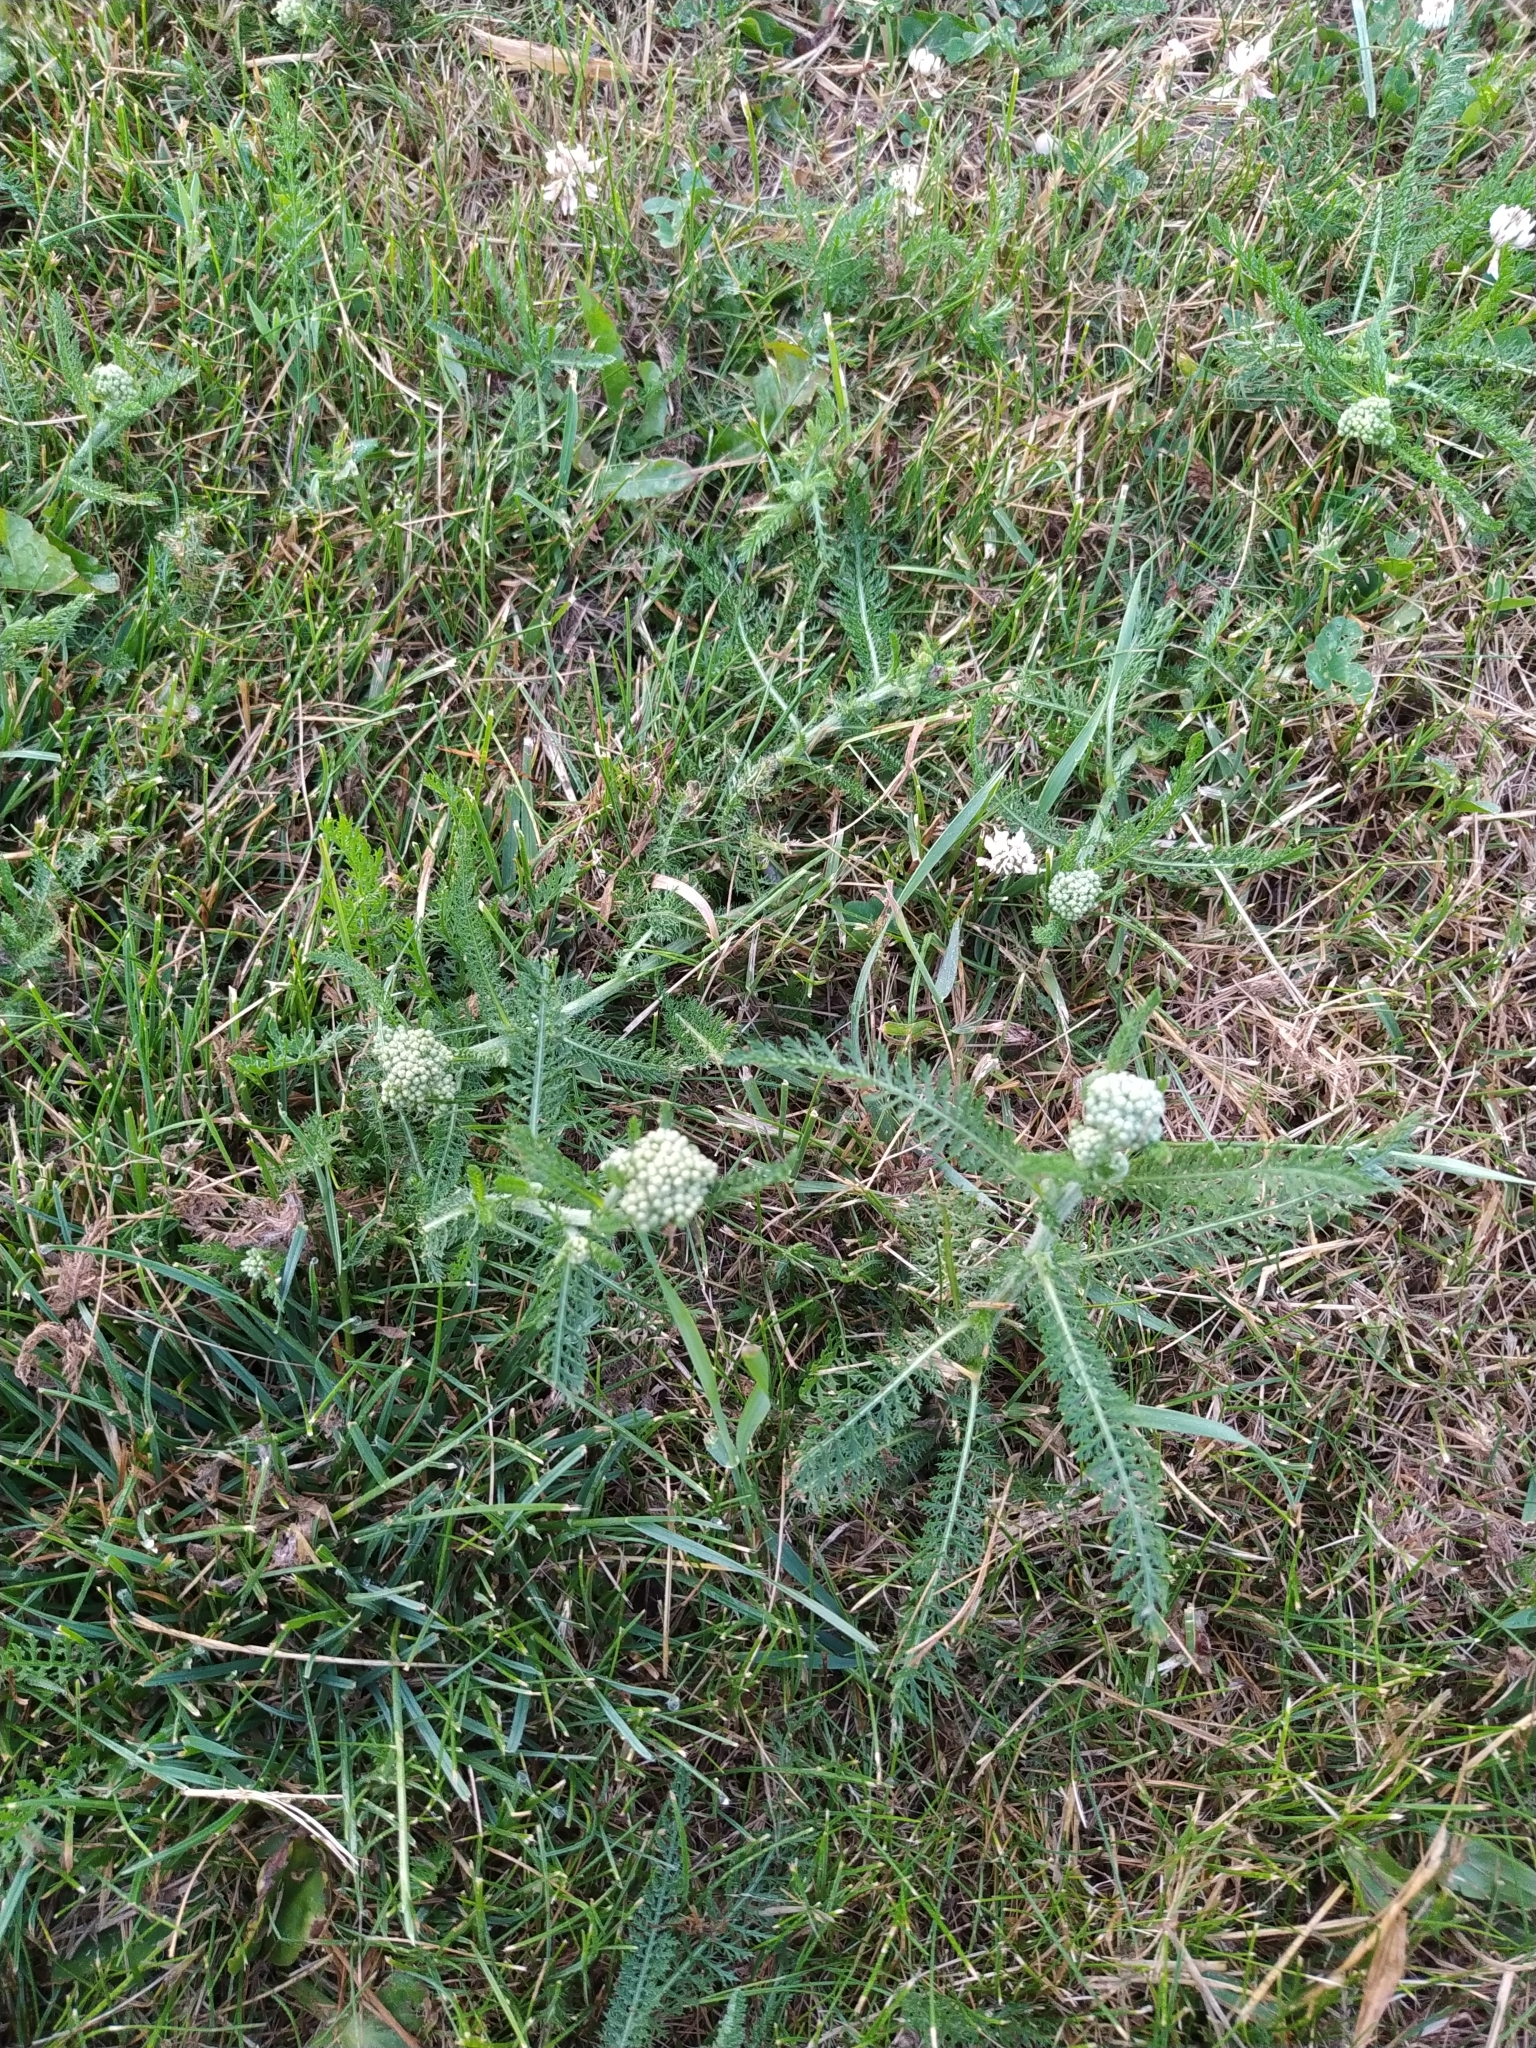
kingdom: Plantae
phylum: Tracheophyta
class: Magnoliopsida
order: Asterales
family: Asteraceae
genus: Achillea
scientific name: Achillea millefolium
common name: Yarrow
